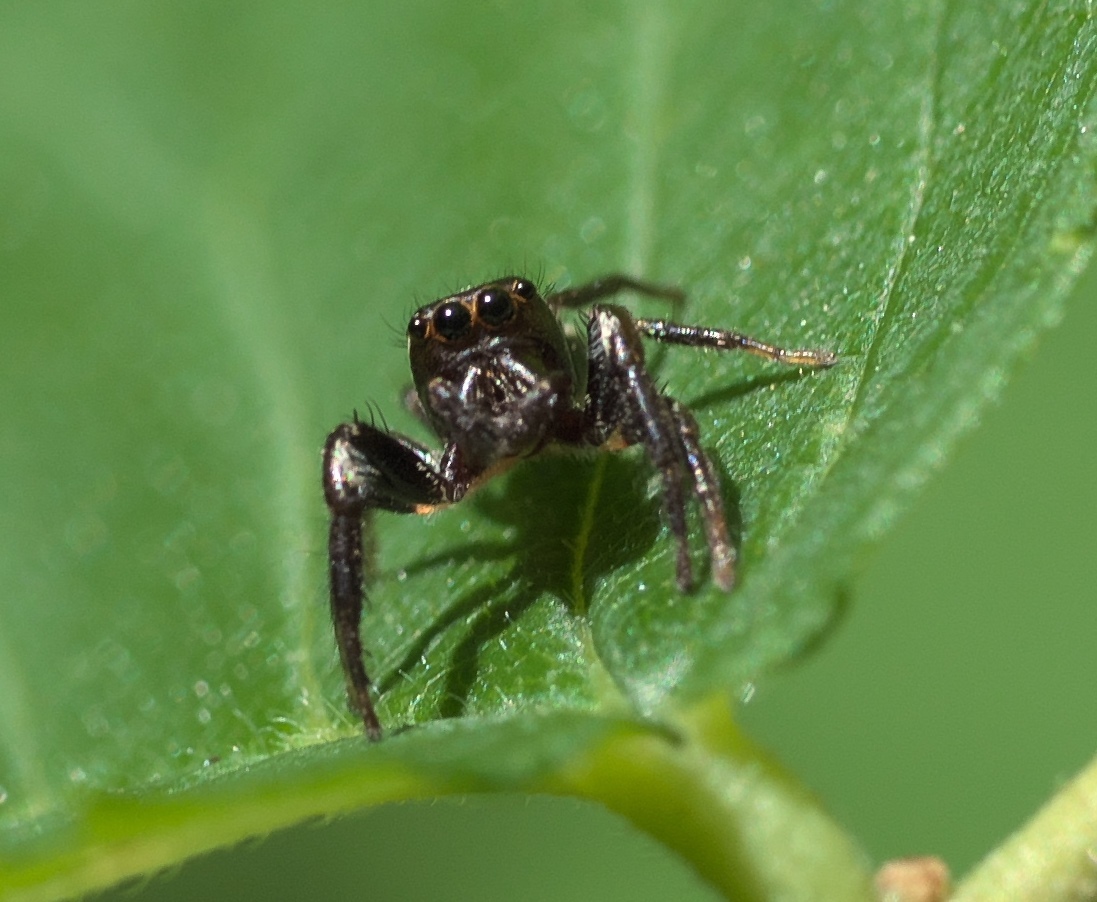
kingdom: Animalia
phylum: Arthropoda
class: Arachnida
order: Araneae
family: Salticidae
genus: Eris
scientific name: Eris militaris
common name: Bronze jumper
